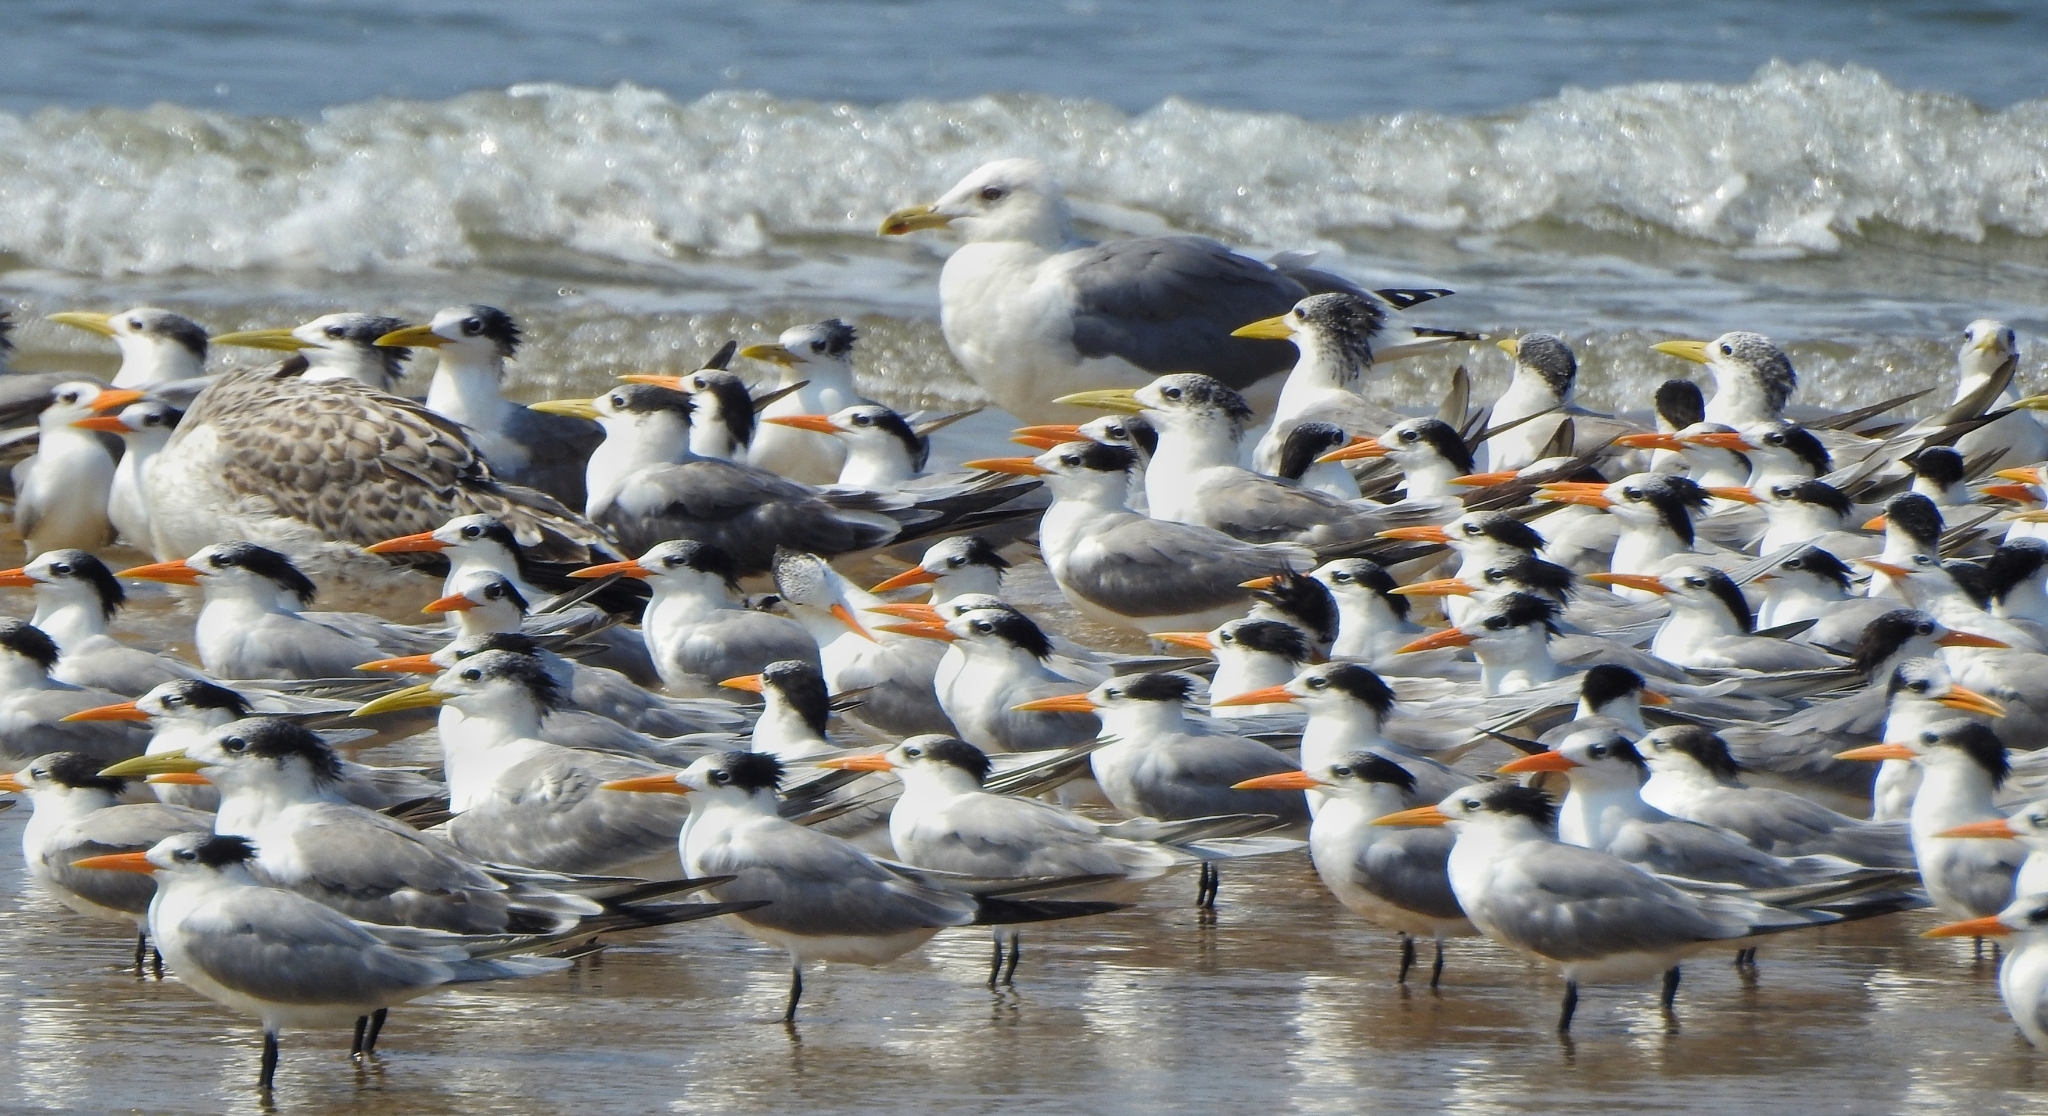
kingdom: Animalia
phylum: Chordata
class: Aves
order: Charadriiformes
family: Laridae
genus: Thalasseus
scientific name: Thalasseus bengalensis
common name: Lesser crested tern
